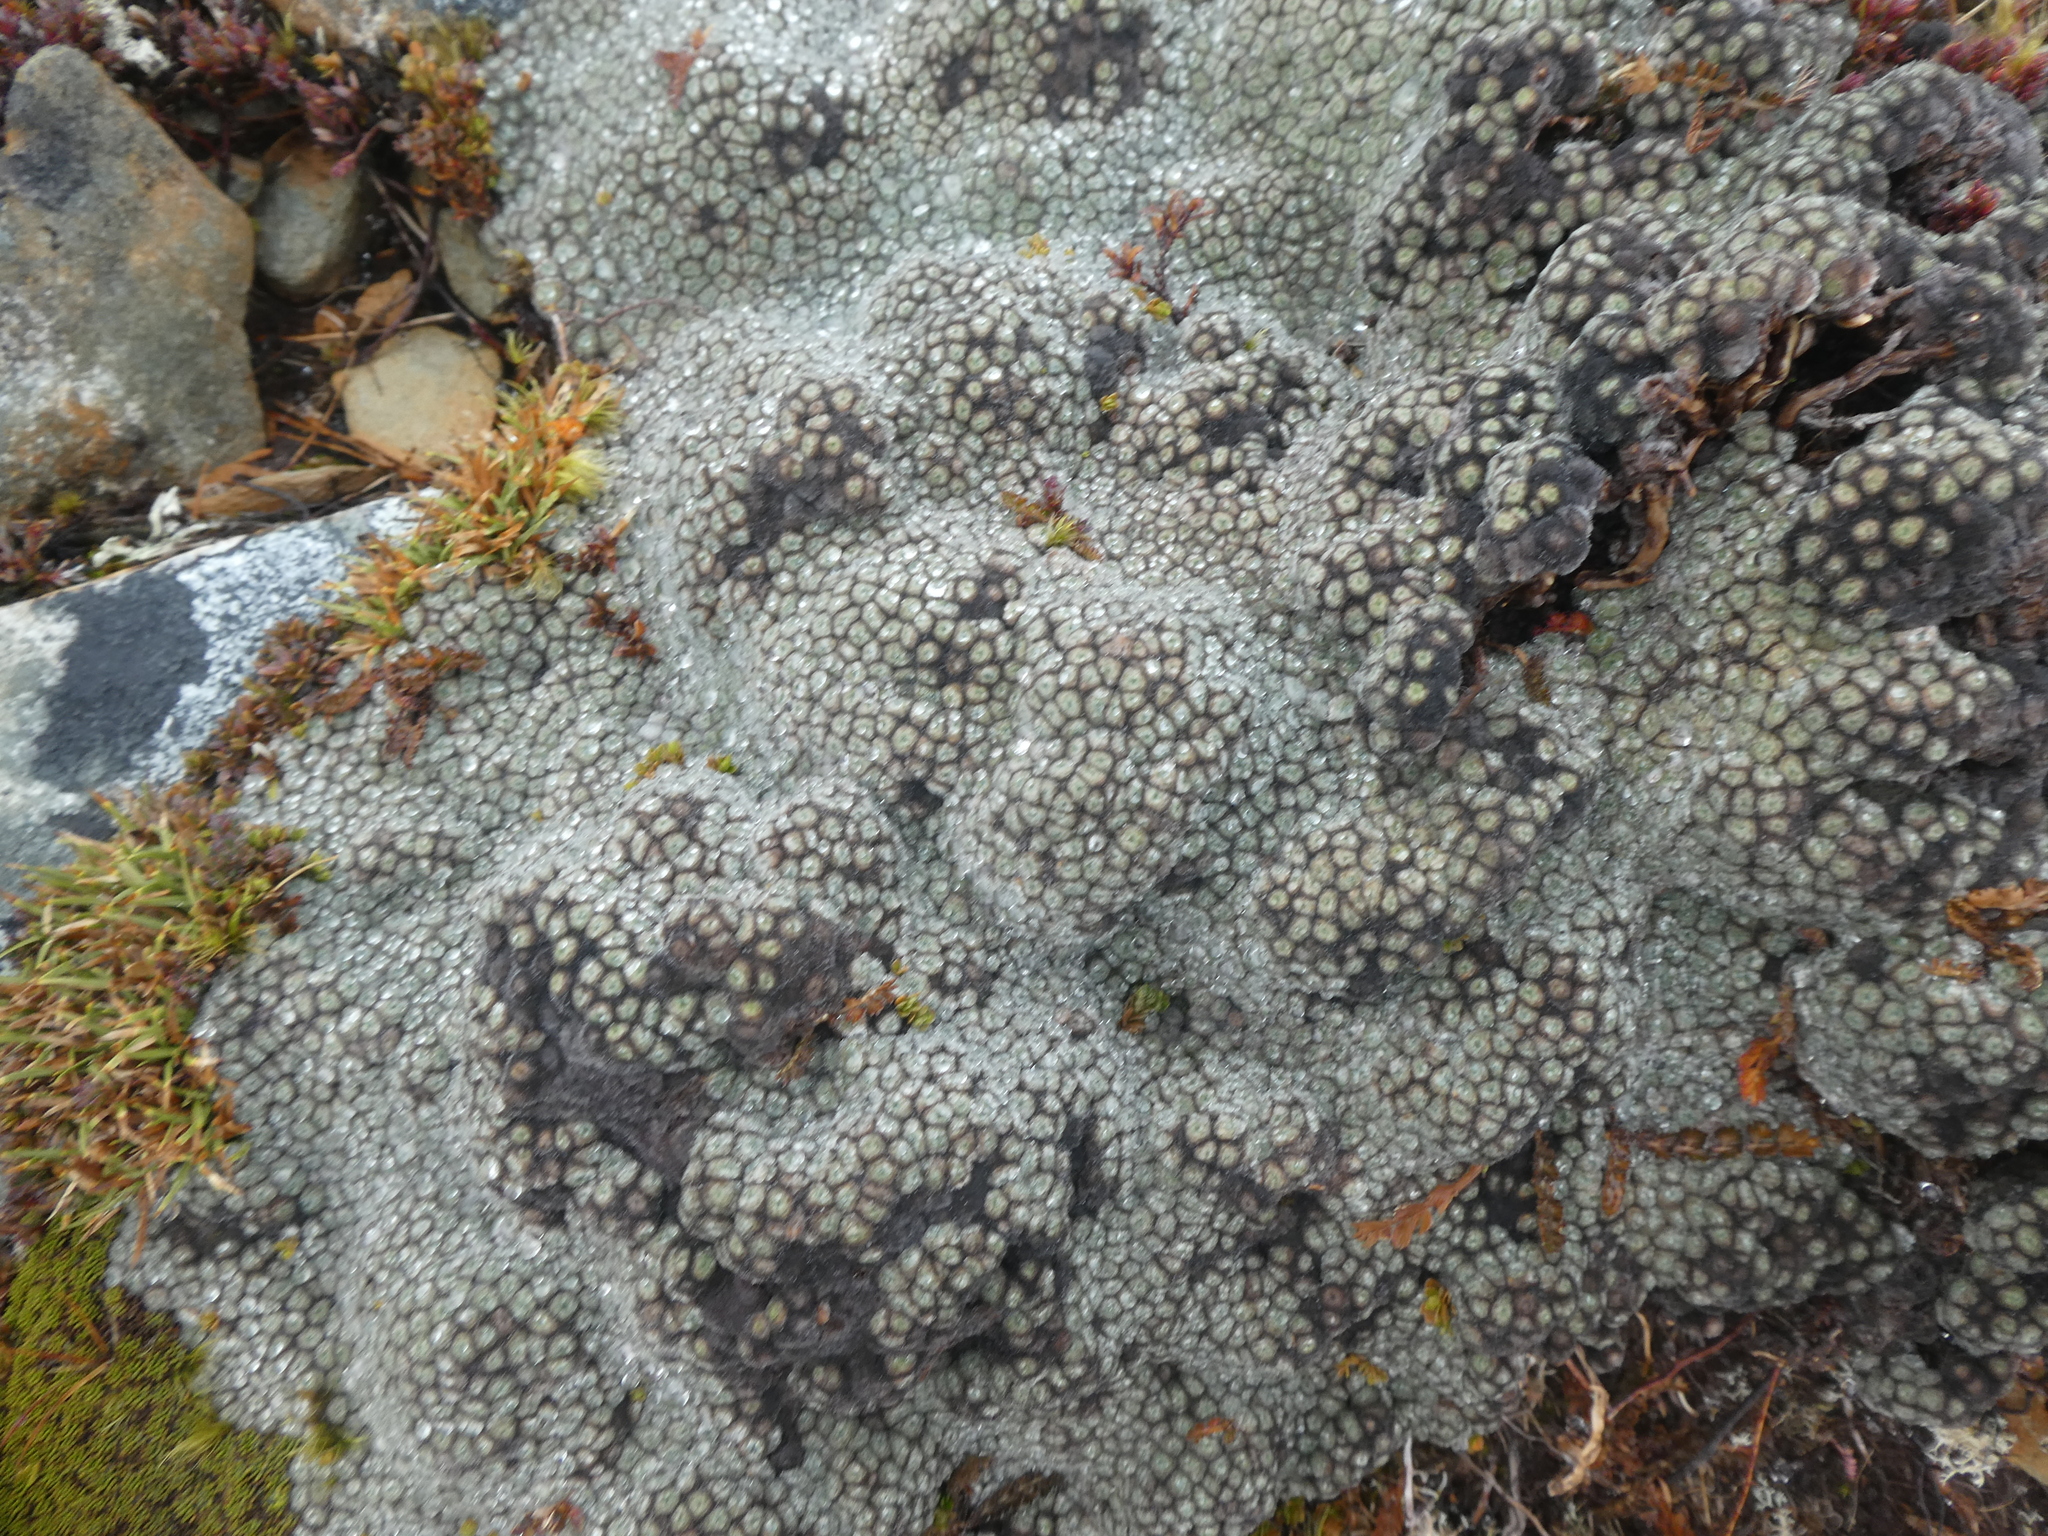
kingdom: Plantae
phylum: Tracheophyta
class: Magnoliopsida
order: Asterales
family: Asteraceae
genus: Raoulia
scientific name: Raoulia eximia
